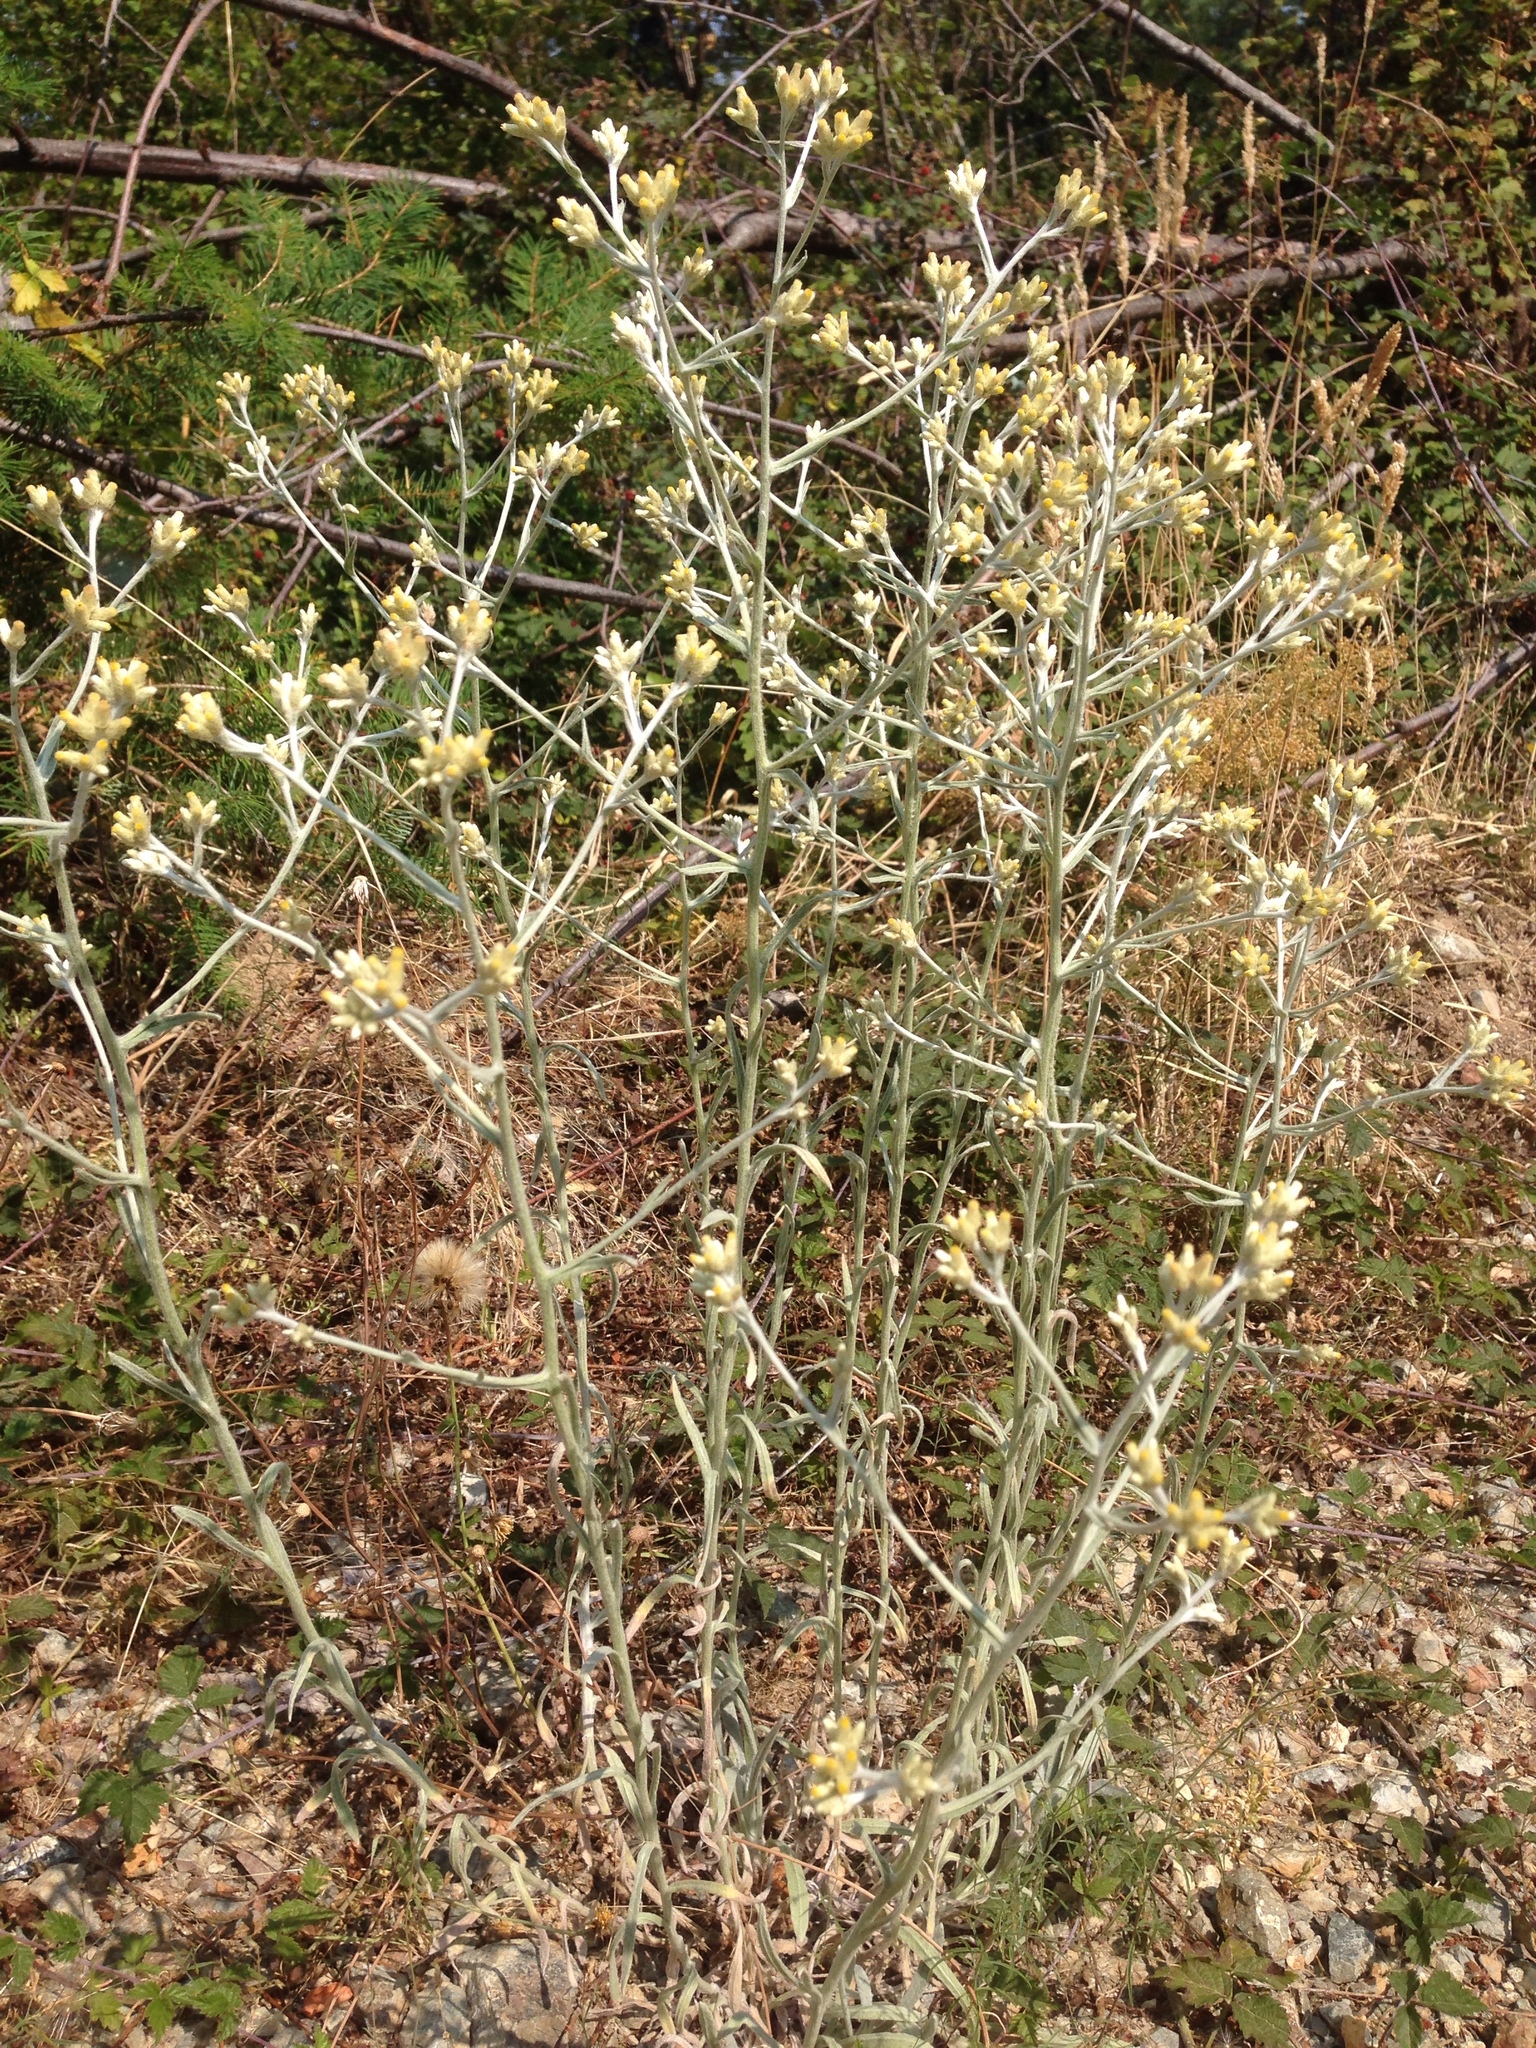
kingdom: Plantae
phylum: Tracheophyta
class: Magnoliopsida
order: Asterales
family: Asteraceae
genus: Pseudognaphalium
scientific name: Pseudognaphalium microcephalum
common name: San diego rabbit-tobacco
